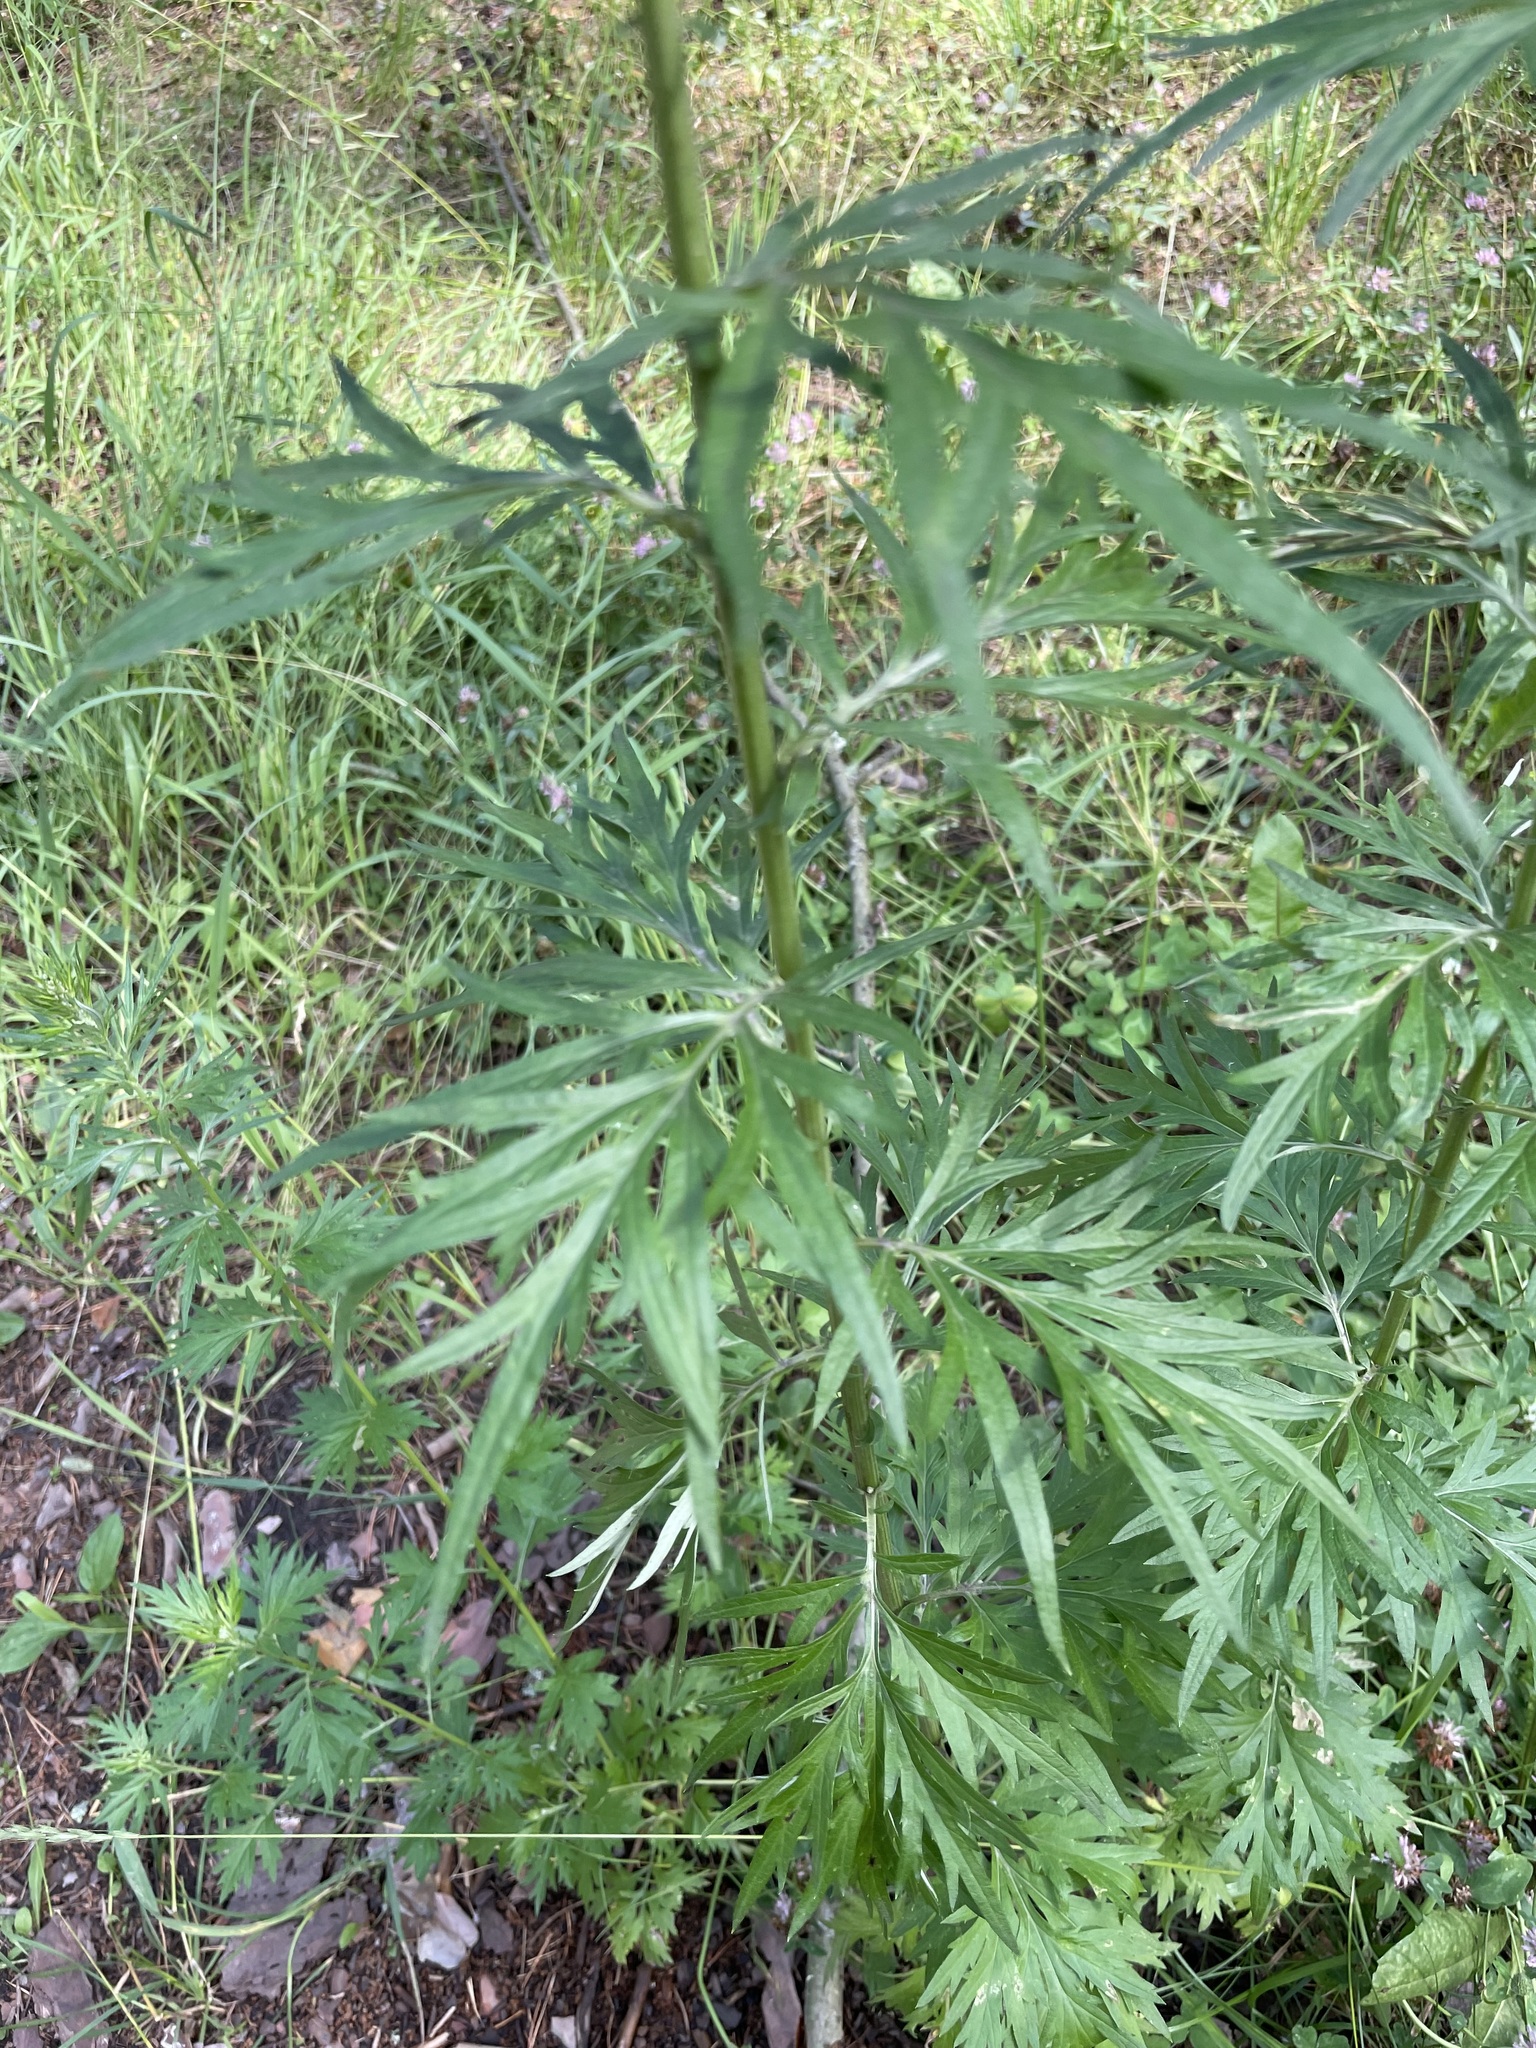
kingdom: Plantae
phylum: Tracheophyta
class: Magnoliopsida
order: Asterales
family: Asteraceae
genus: Artemisia
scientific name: Artemisia vulgaris
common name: Mugwort
